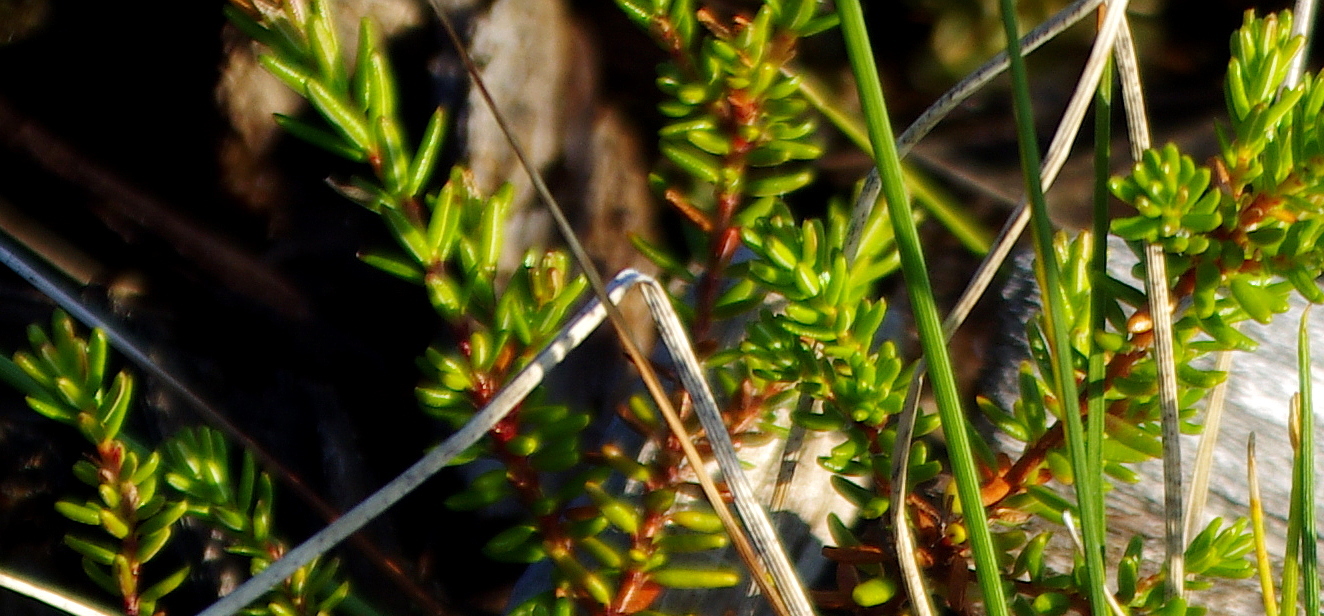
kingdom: Plantae
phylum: Tracheophyta
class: Magnoliopsida
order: Ericales
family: Ericaceae
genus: Empetrum
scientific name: Empetrum nigrum
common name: Black crowberry
